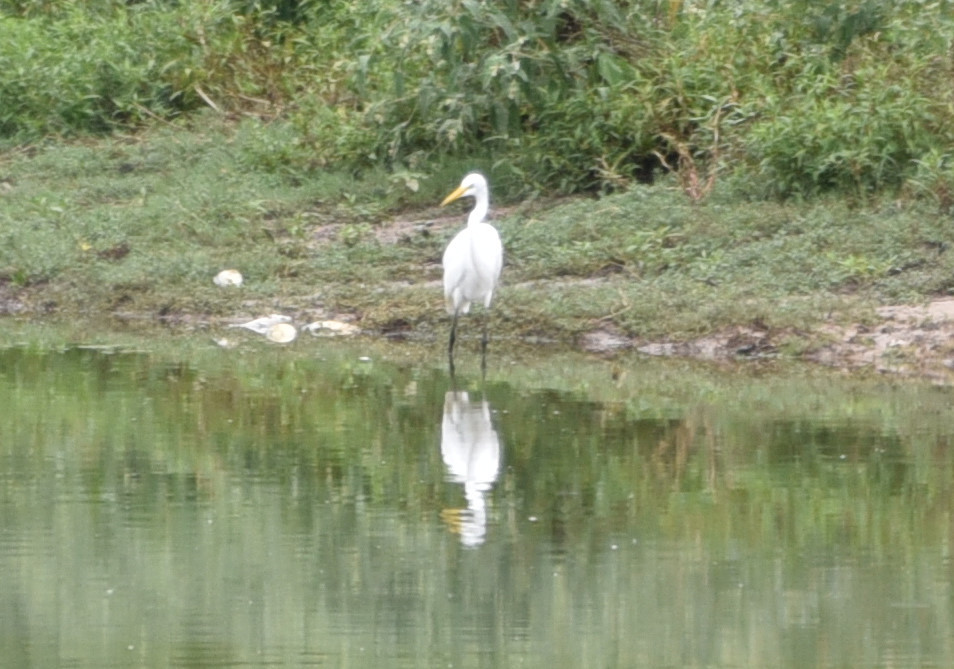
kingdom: Animalia
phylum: Chordata
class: Aves
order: Pelecaniformes
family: Ardeidae
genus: Ardea
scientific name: Ardea alba
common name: Great egret
